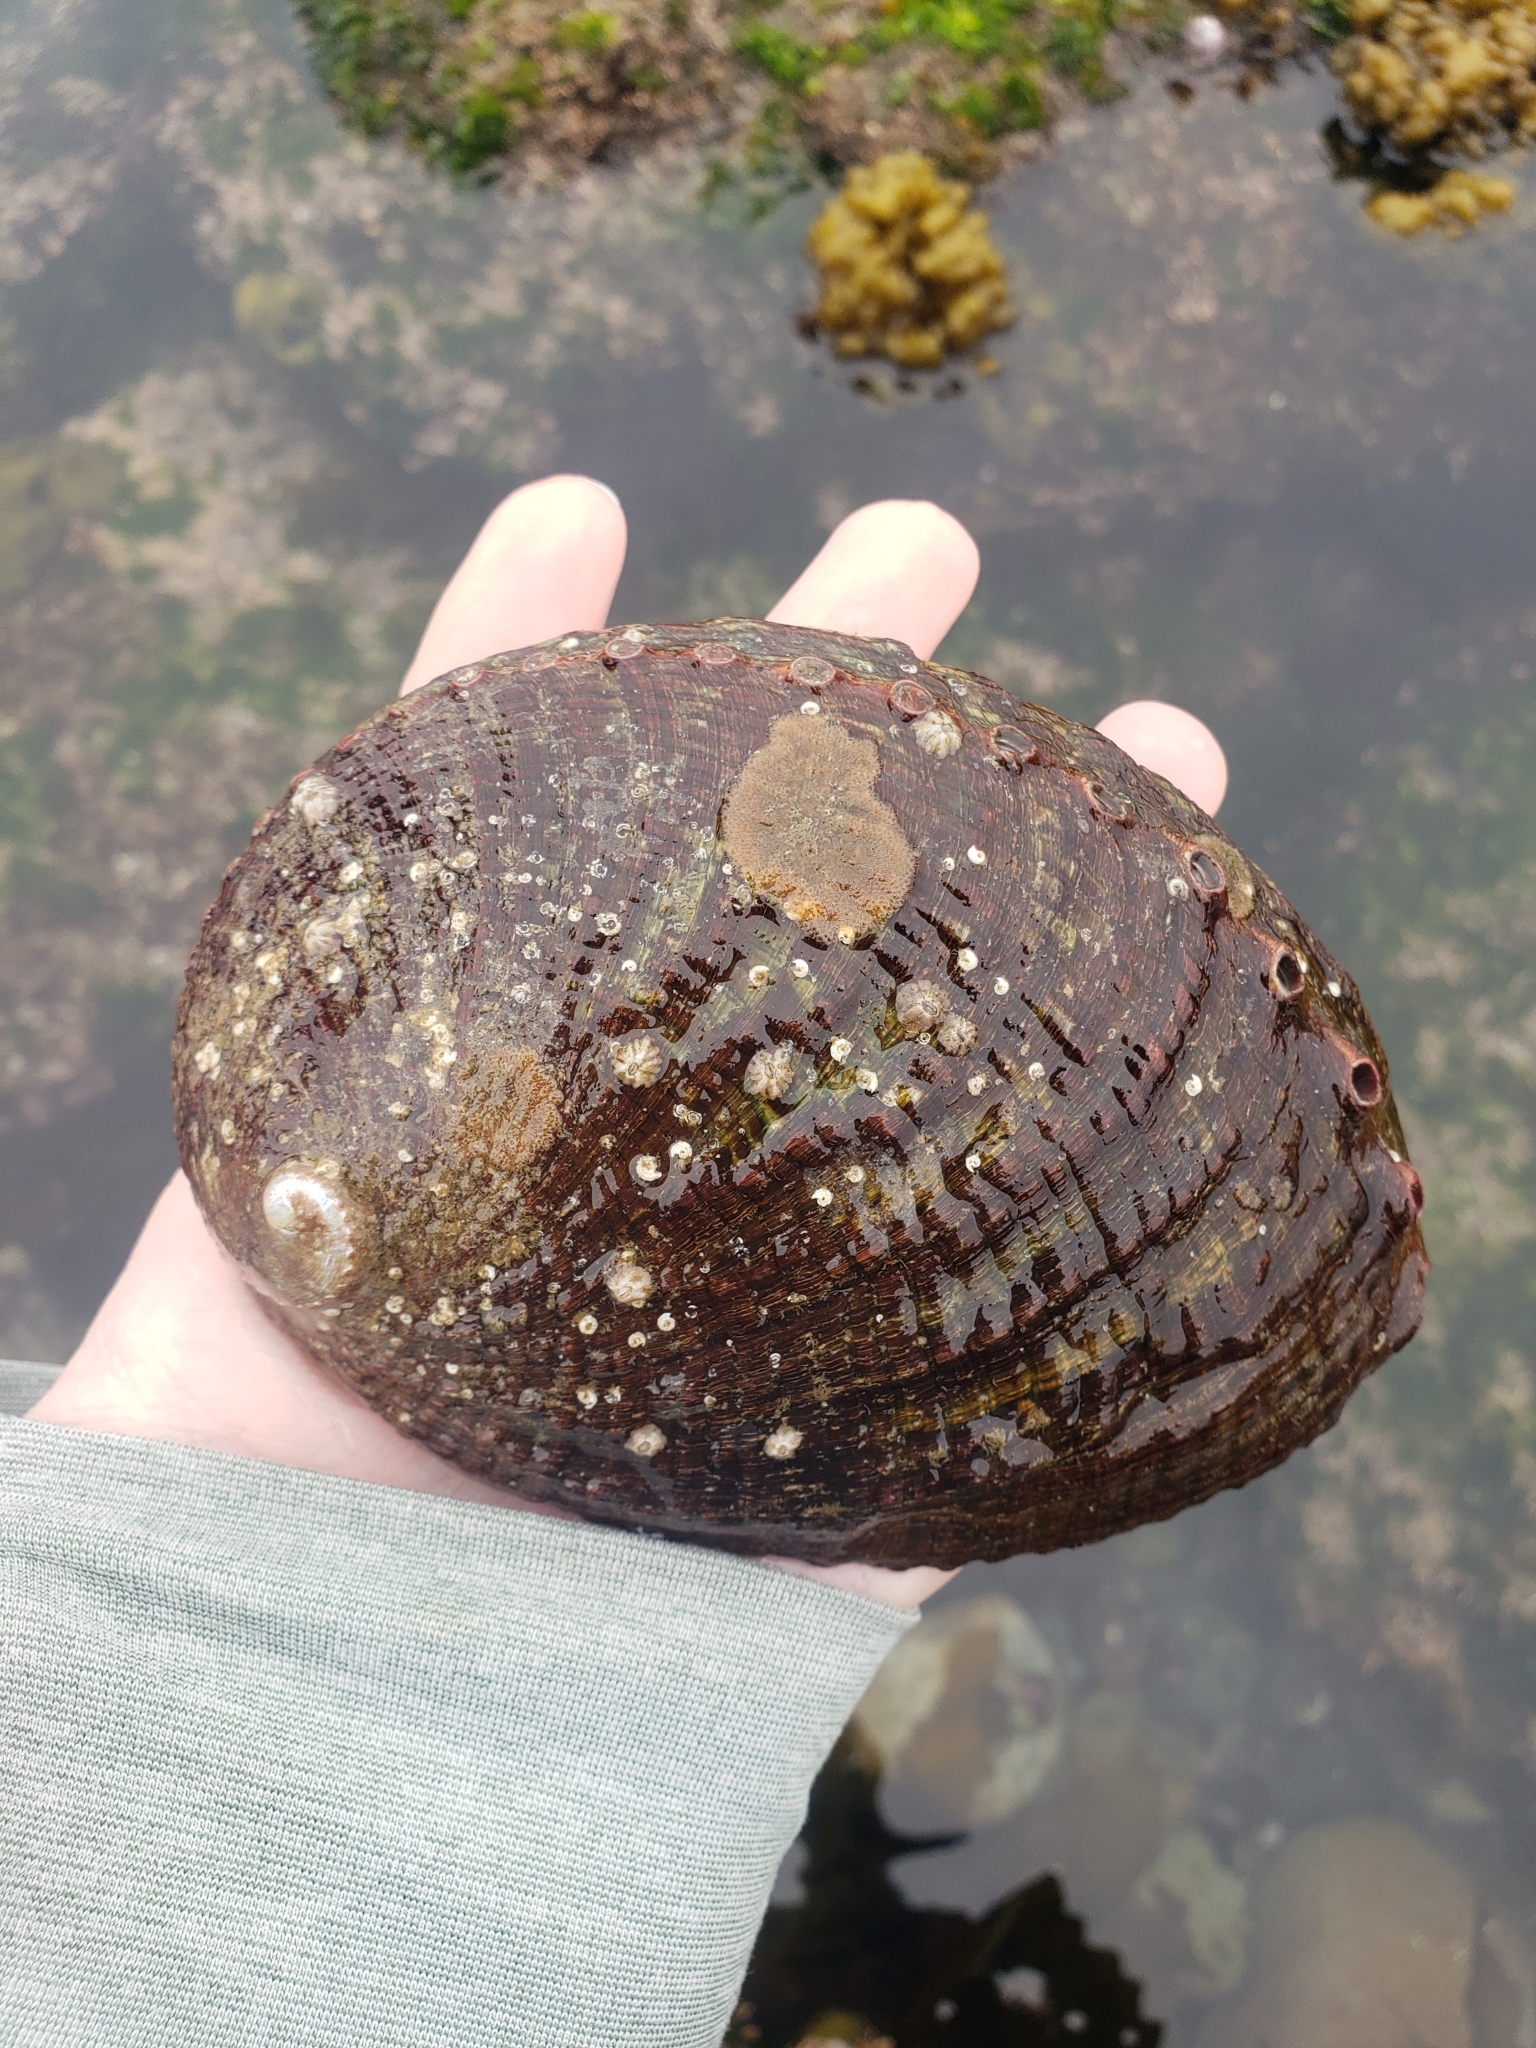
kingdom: Animalia
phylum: Mollusca
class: Gastropoda
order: Lepetellida
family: Haliotidae
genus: Haliotis
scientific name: Haliotis fulgens
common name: Green abalone
